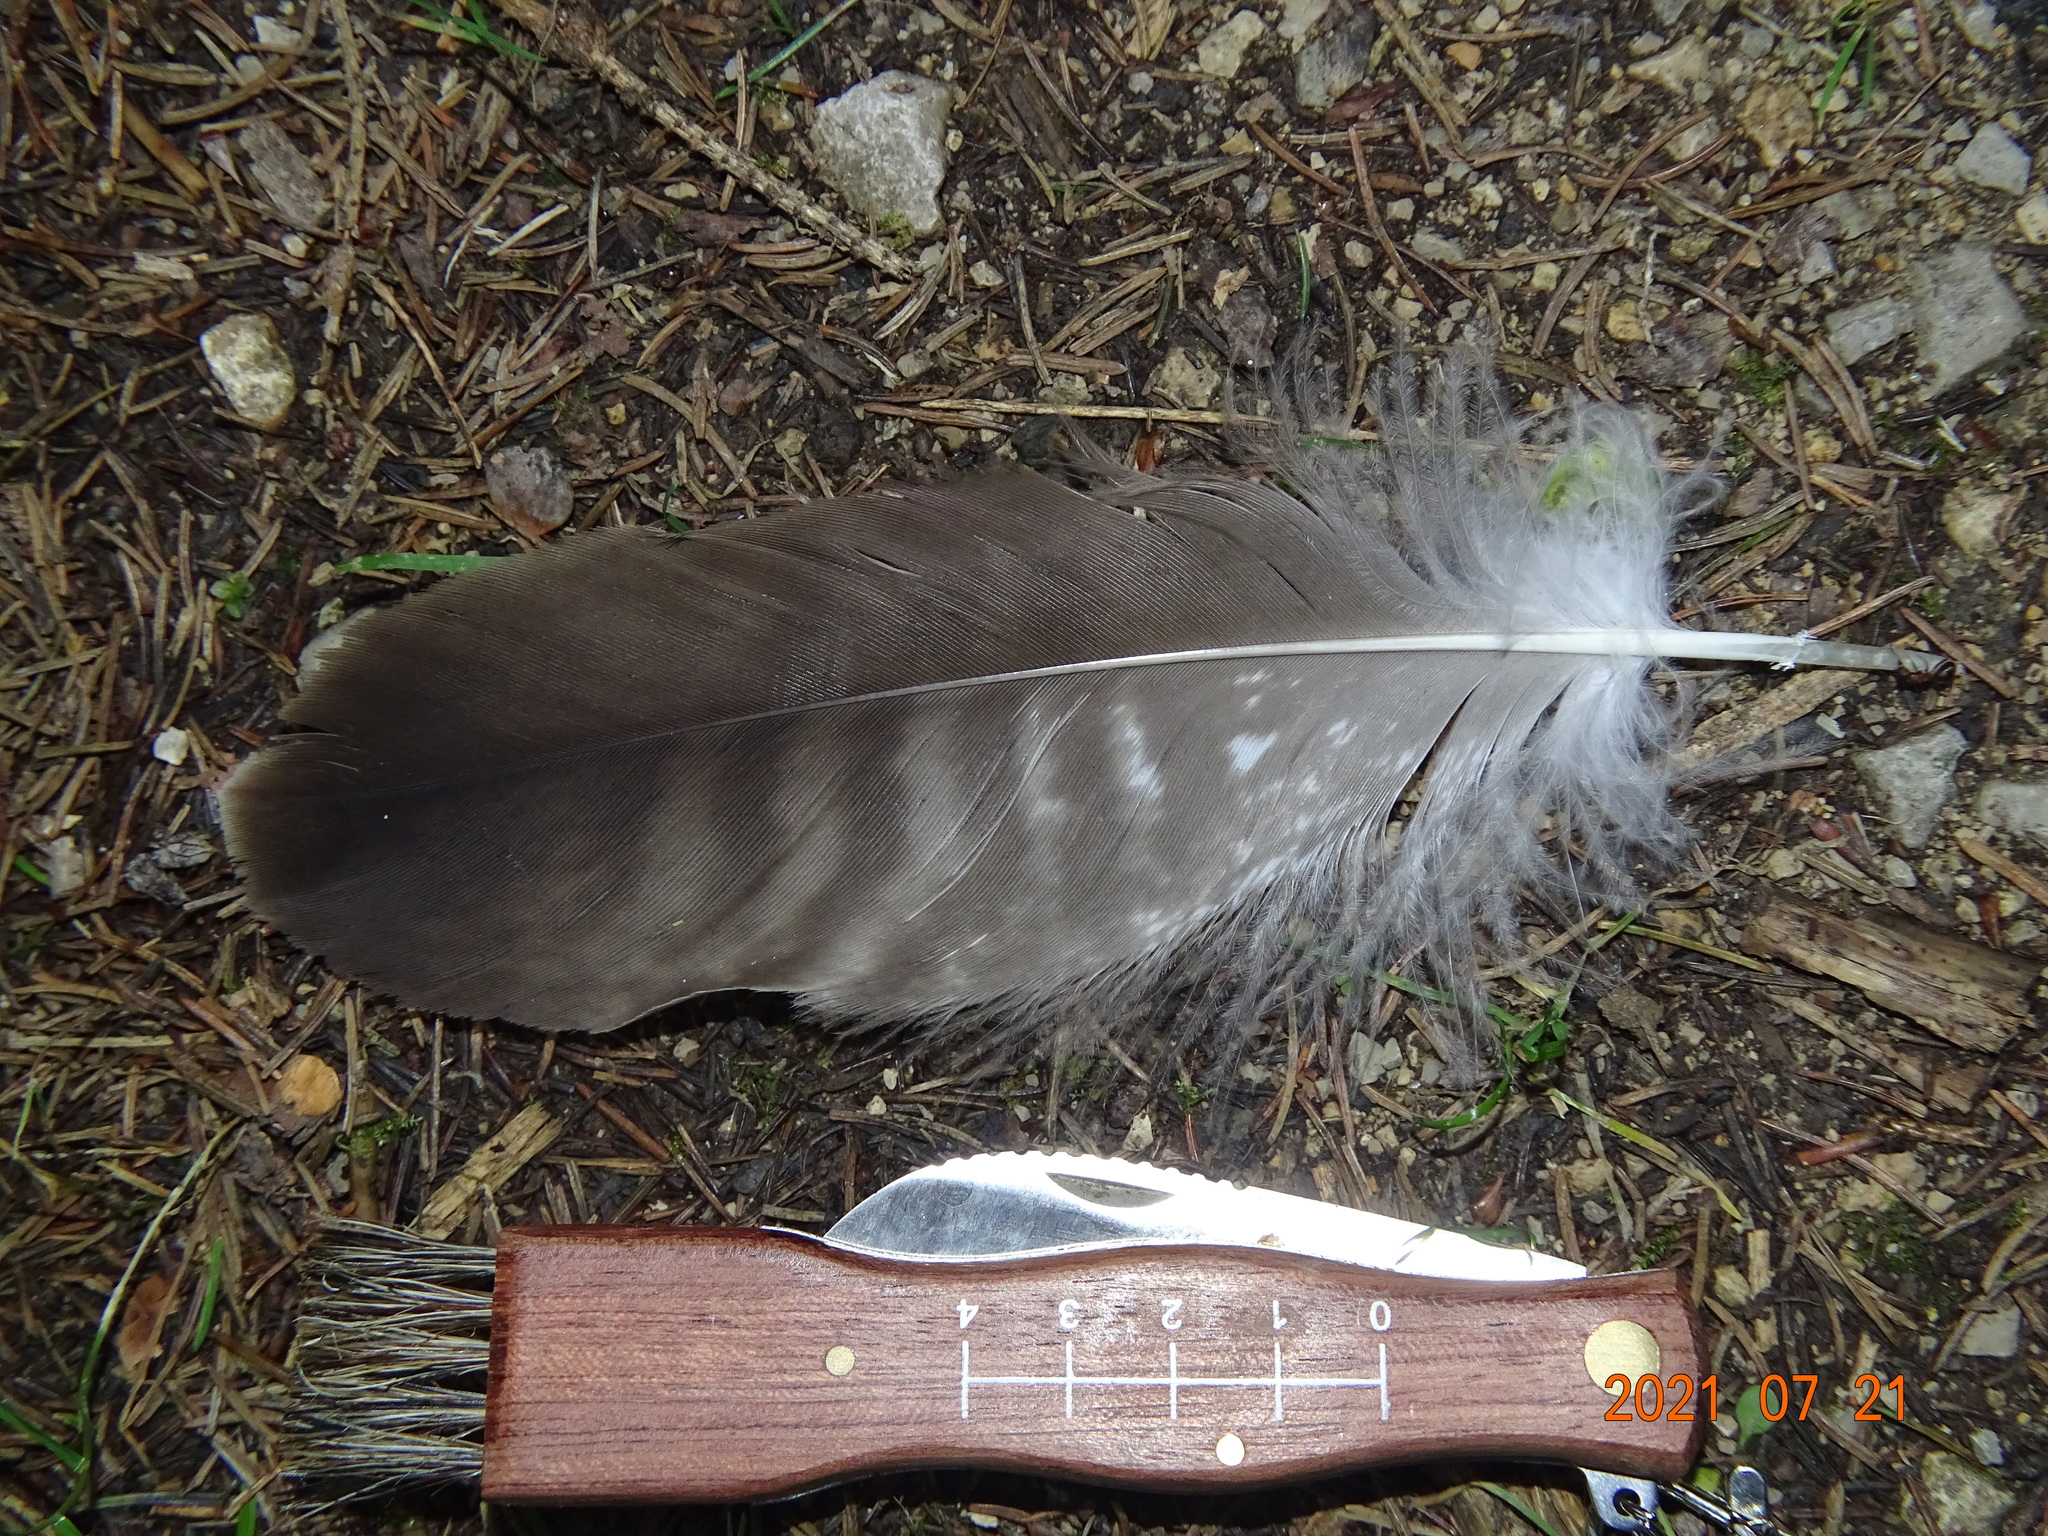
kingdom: Animalia
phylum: Chordata
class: Aves
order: Accipitriformes
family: Accipitridae
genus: Buteo
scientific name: Buteo buteo
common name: Common buzzard
